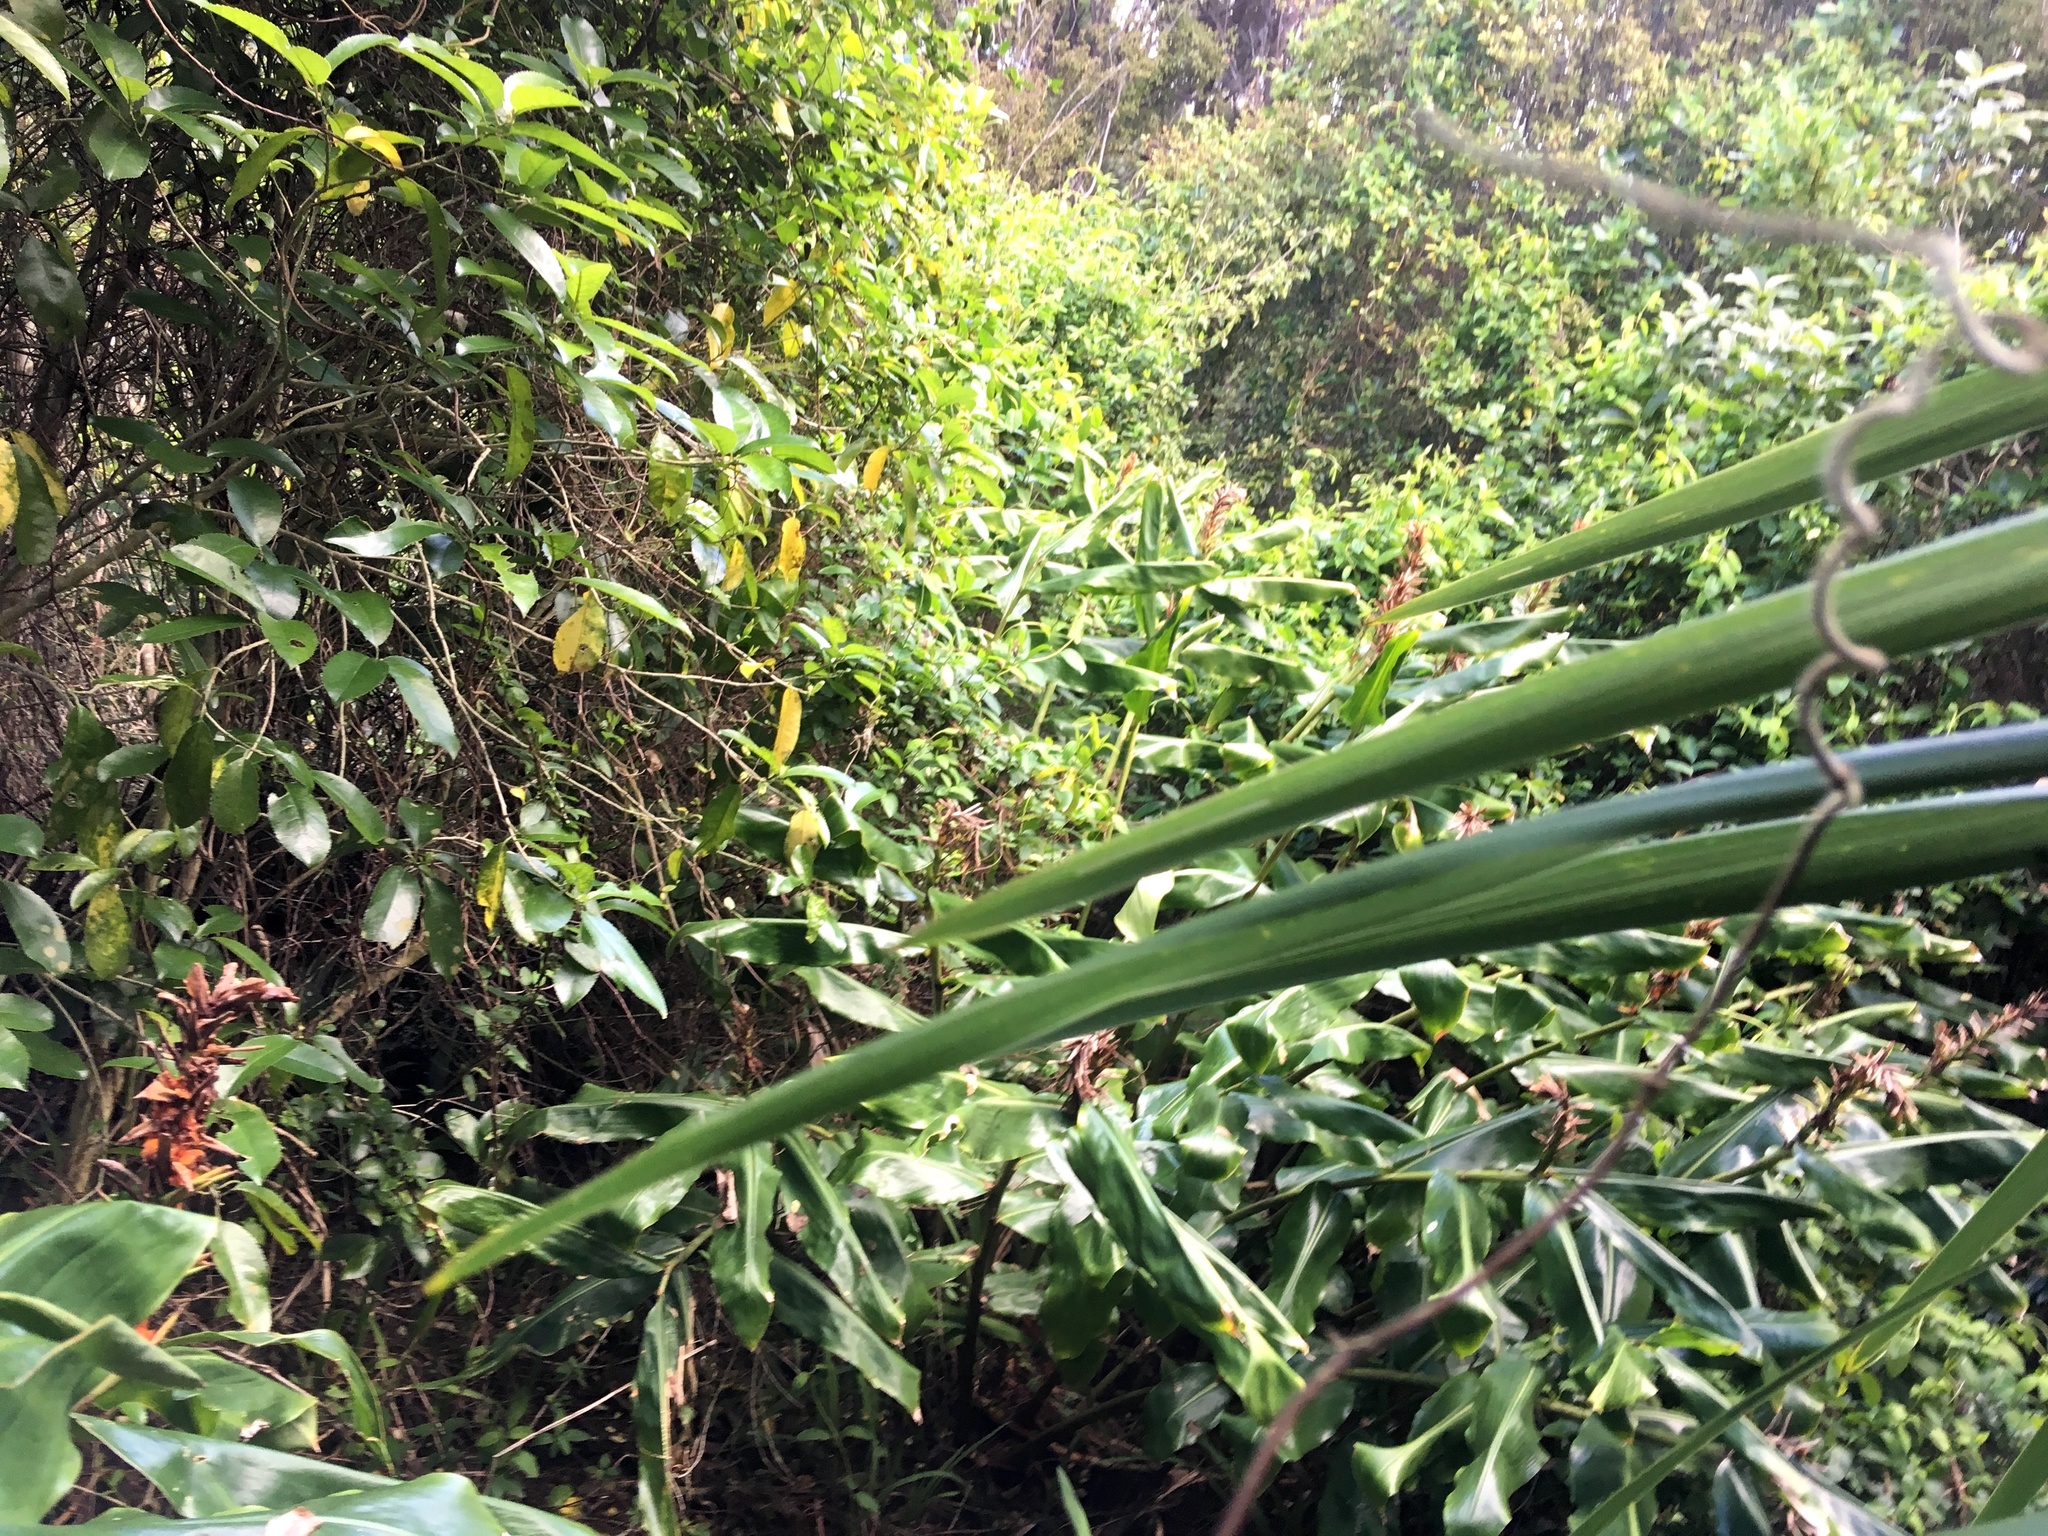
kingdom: Plantae
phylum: Tracheophyta
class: Liliopsida
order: Zingiberales
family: Zingiberaceae
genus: Hedychium
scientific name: Hedychium gardnerianum
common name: Himalayan ginger
